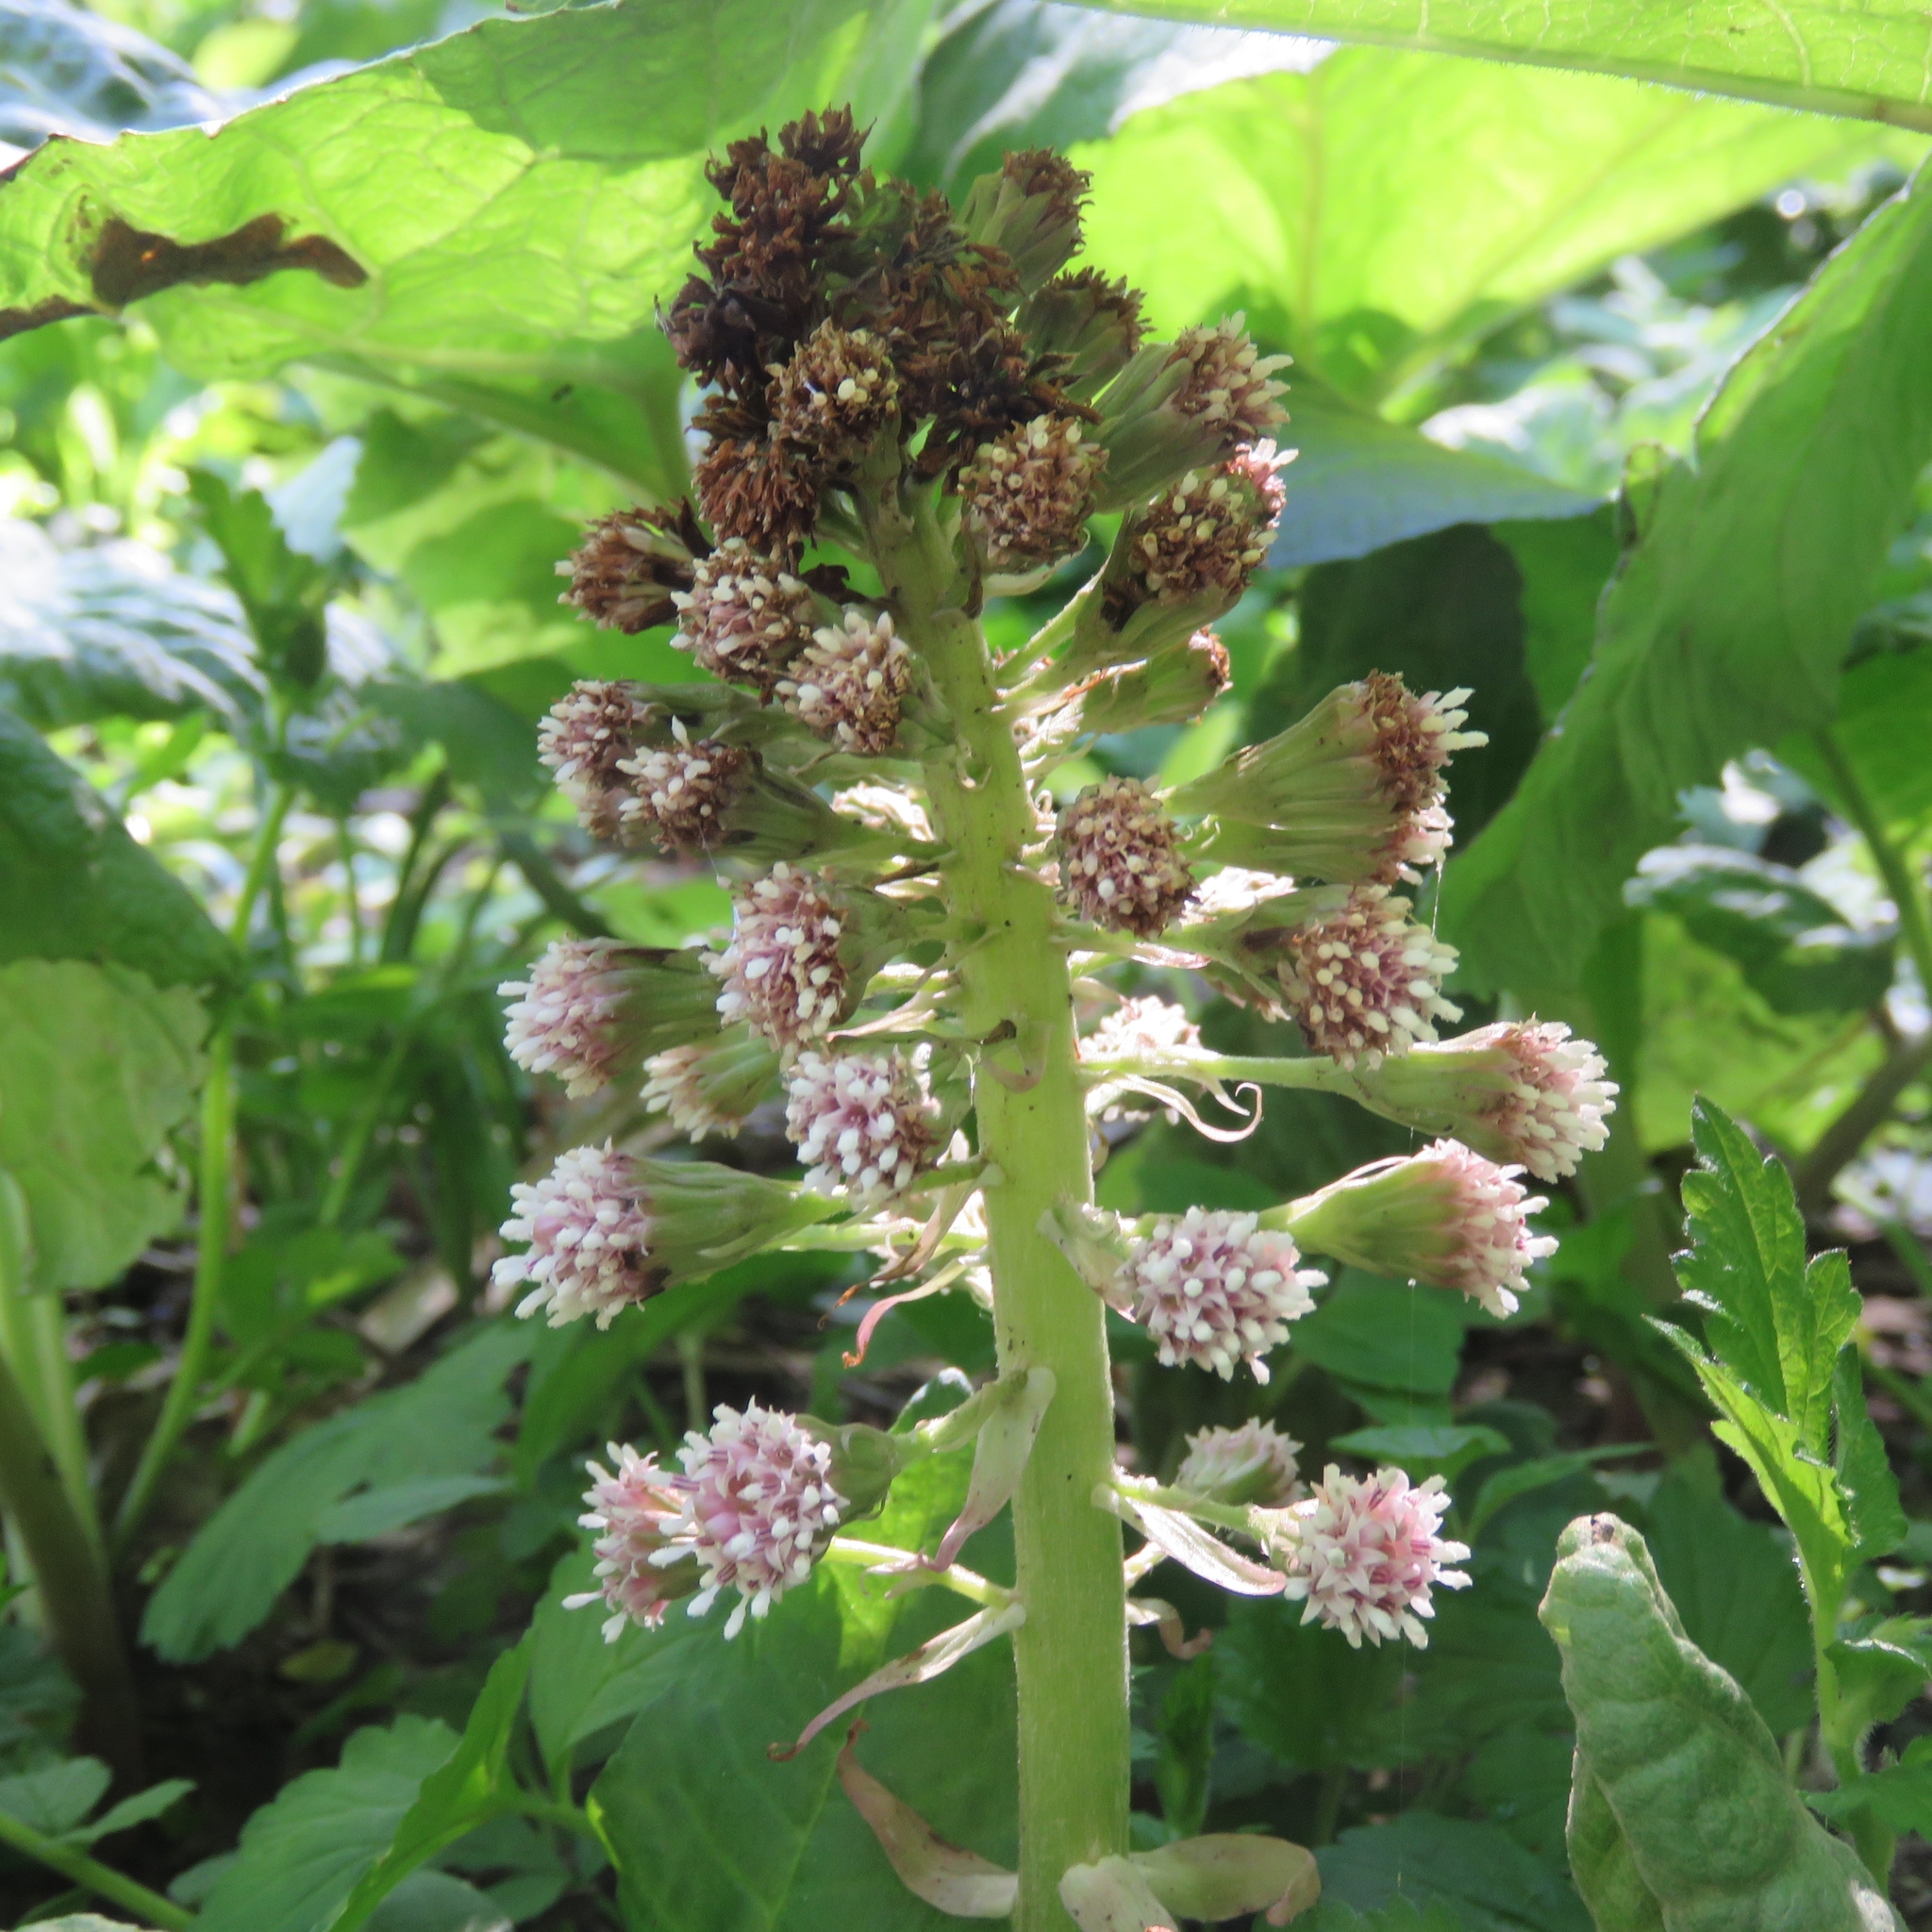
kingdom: Plantae
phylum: Tracheophyta
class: Magnoliopsida
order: Asterales
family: Asteraceae
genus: Petasites
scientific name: Petasites hybridus
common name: Butterbur
